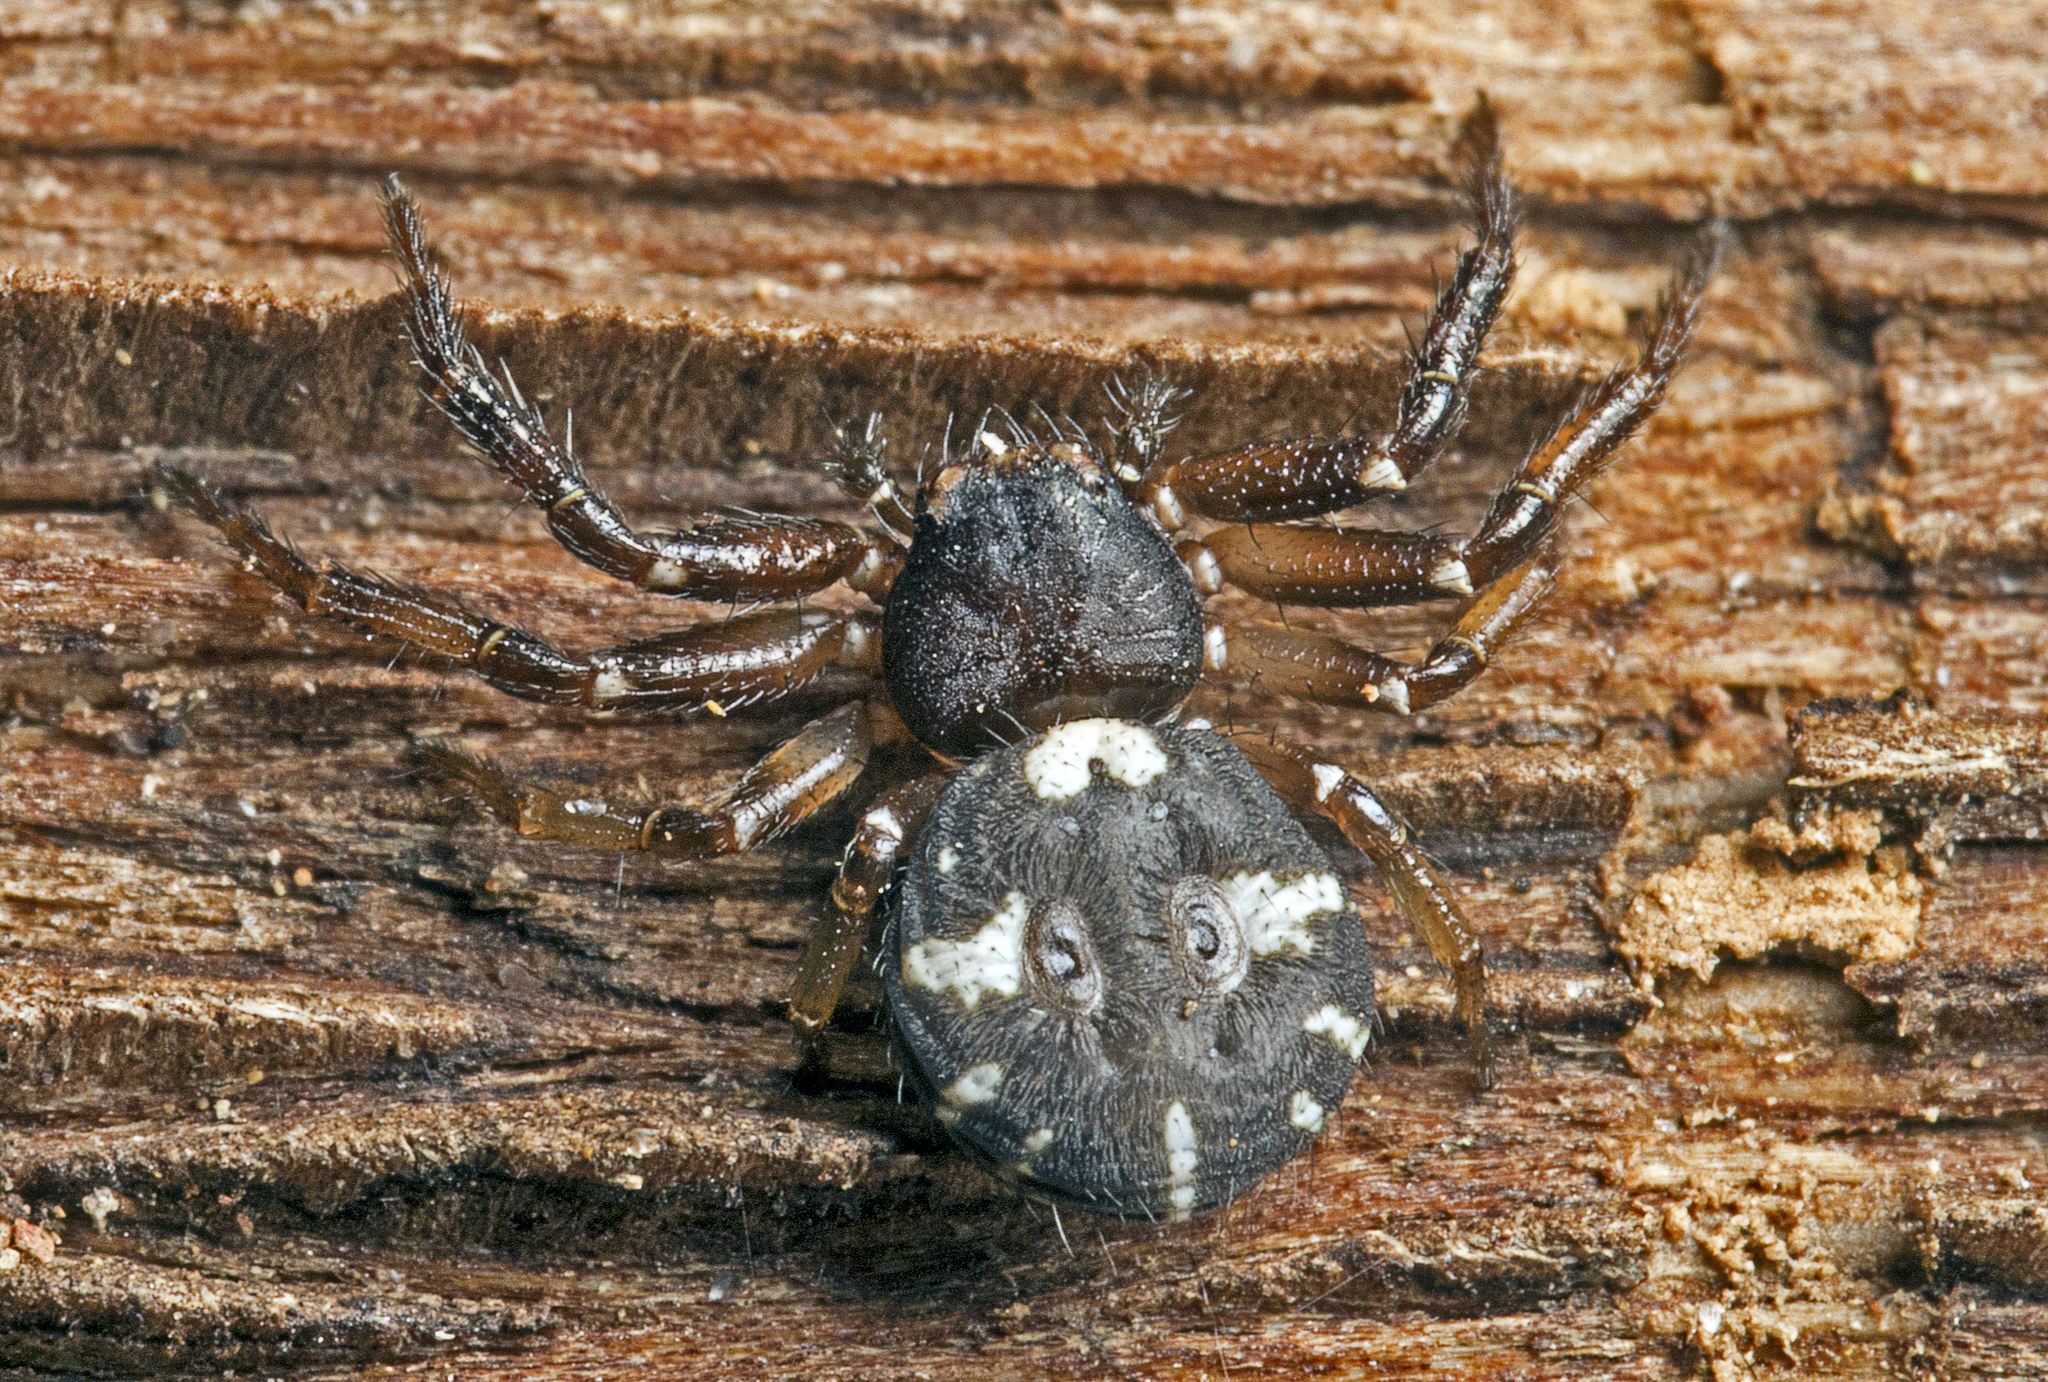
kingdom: Animalia
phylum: Arthropoda
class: Arachnida
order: Araneae
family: Thomisidae
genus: Tharpyna
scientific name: Tharpyna decorata
